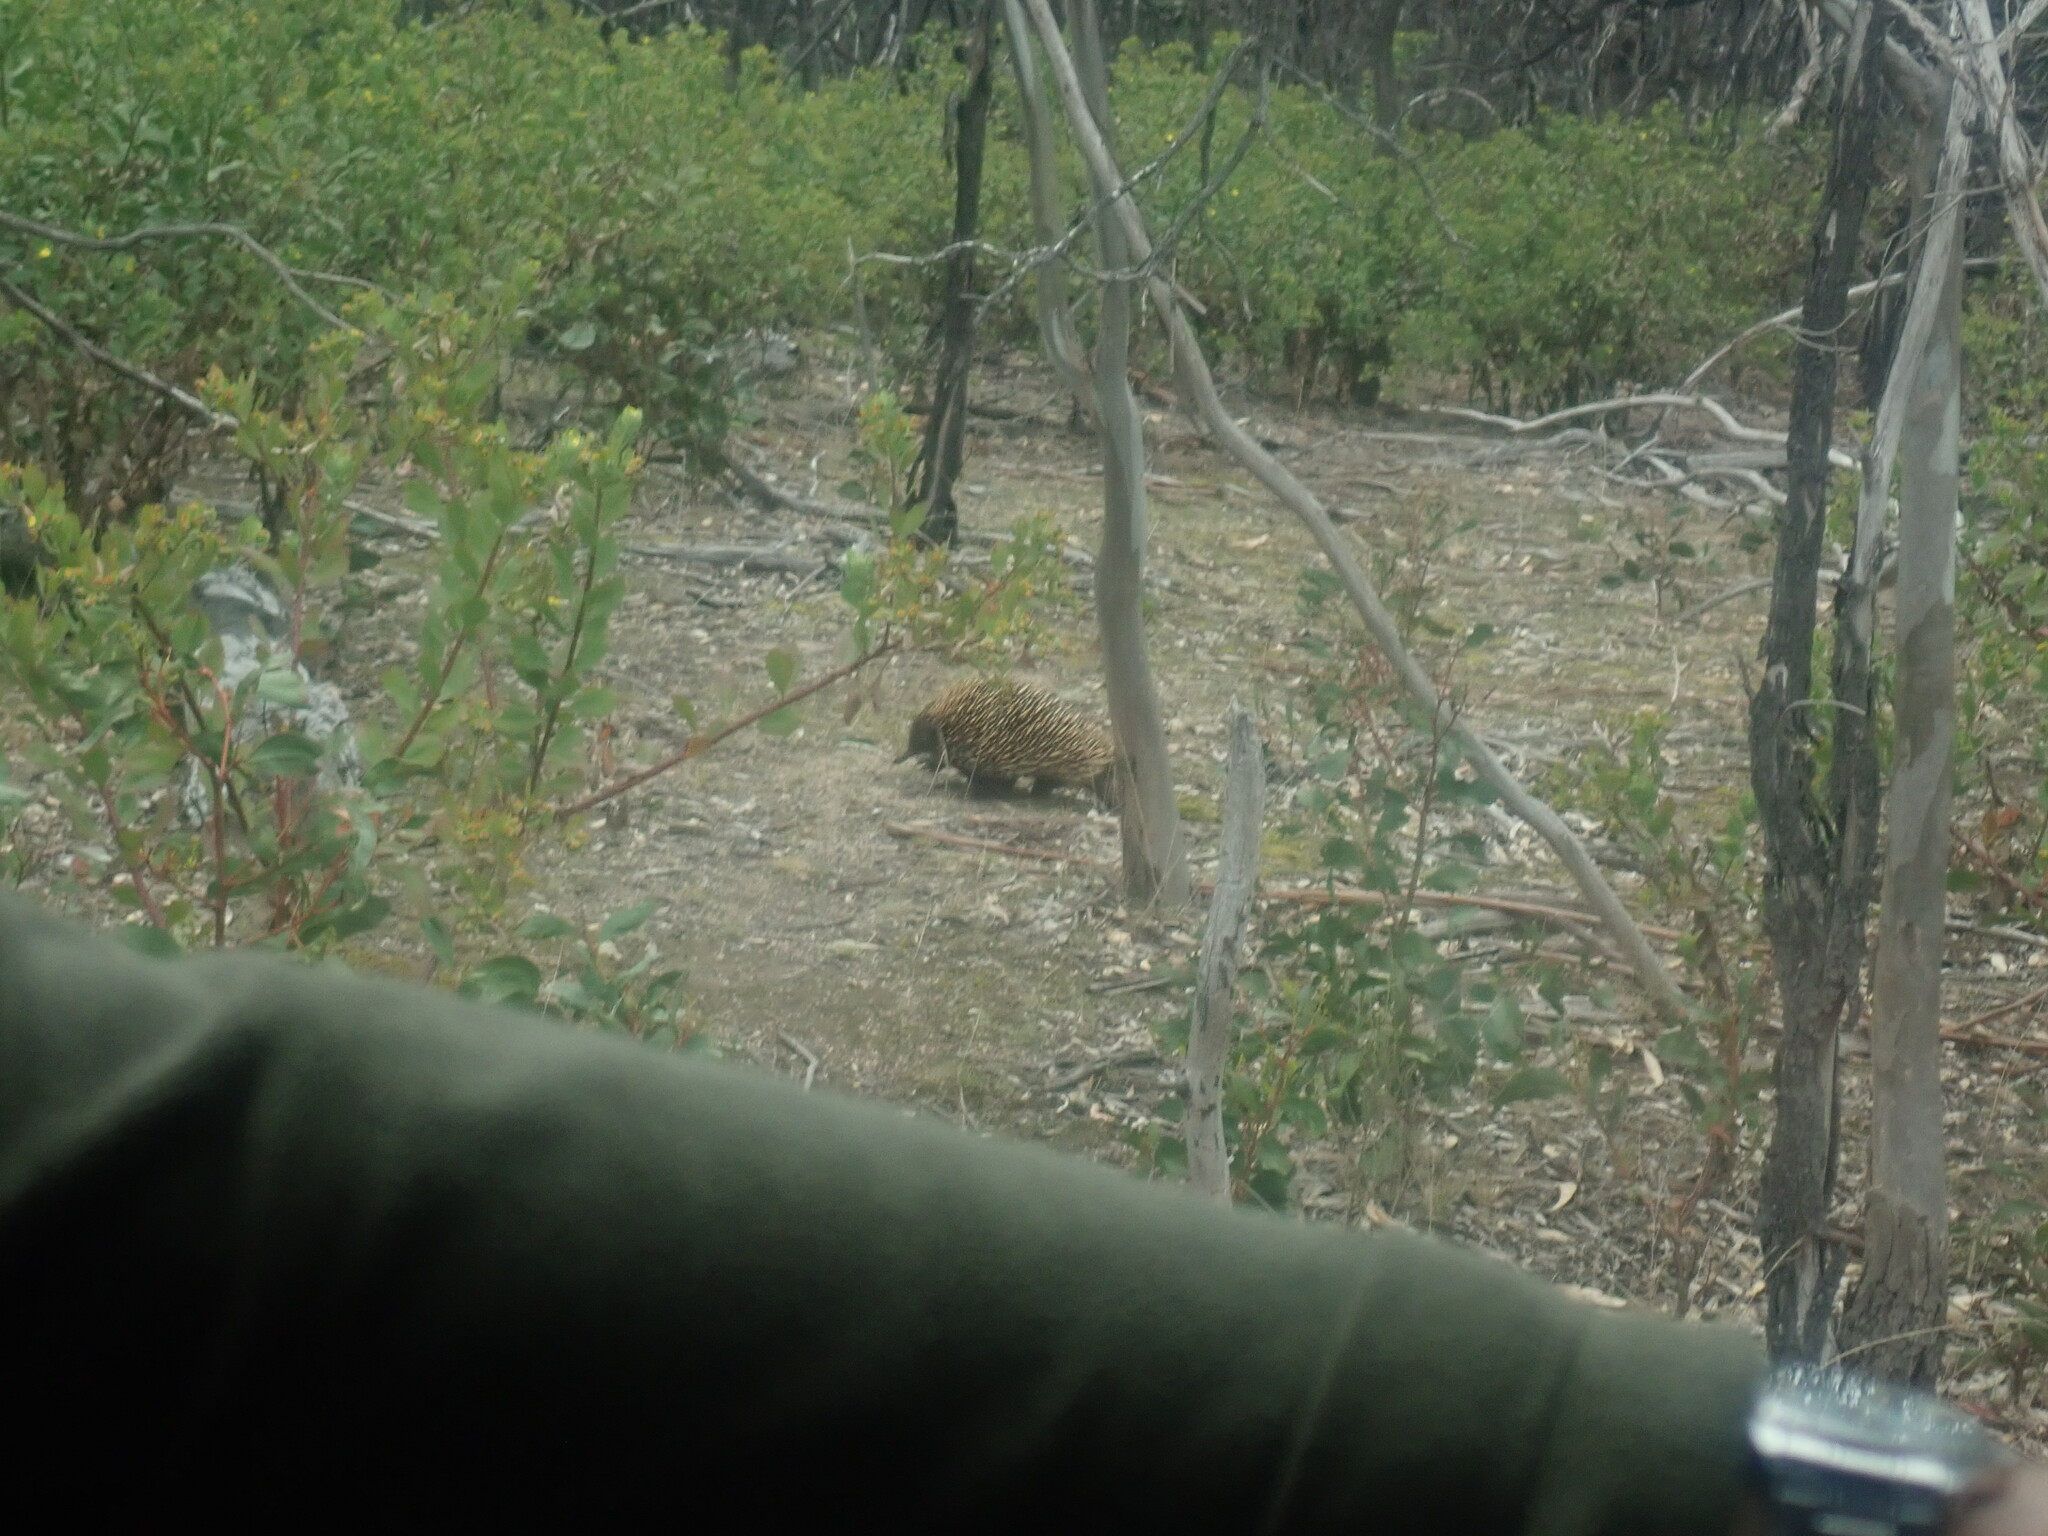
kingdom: Animalia
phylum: Chordata
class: Mammalia
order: Monotremata
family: Tachyglossidae
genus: Tachyglossus
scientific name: Tachyglossus aculeatus
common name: Short-beaked echidna
